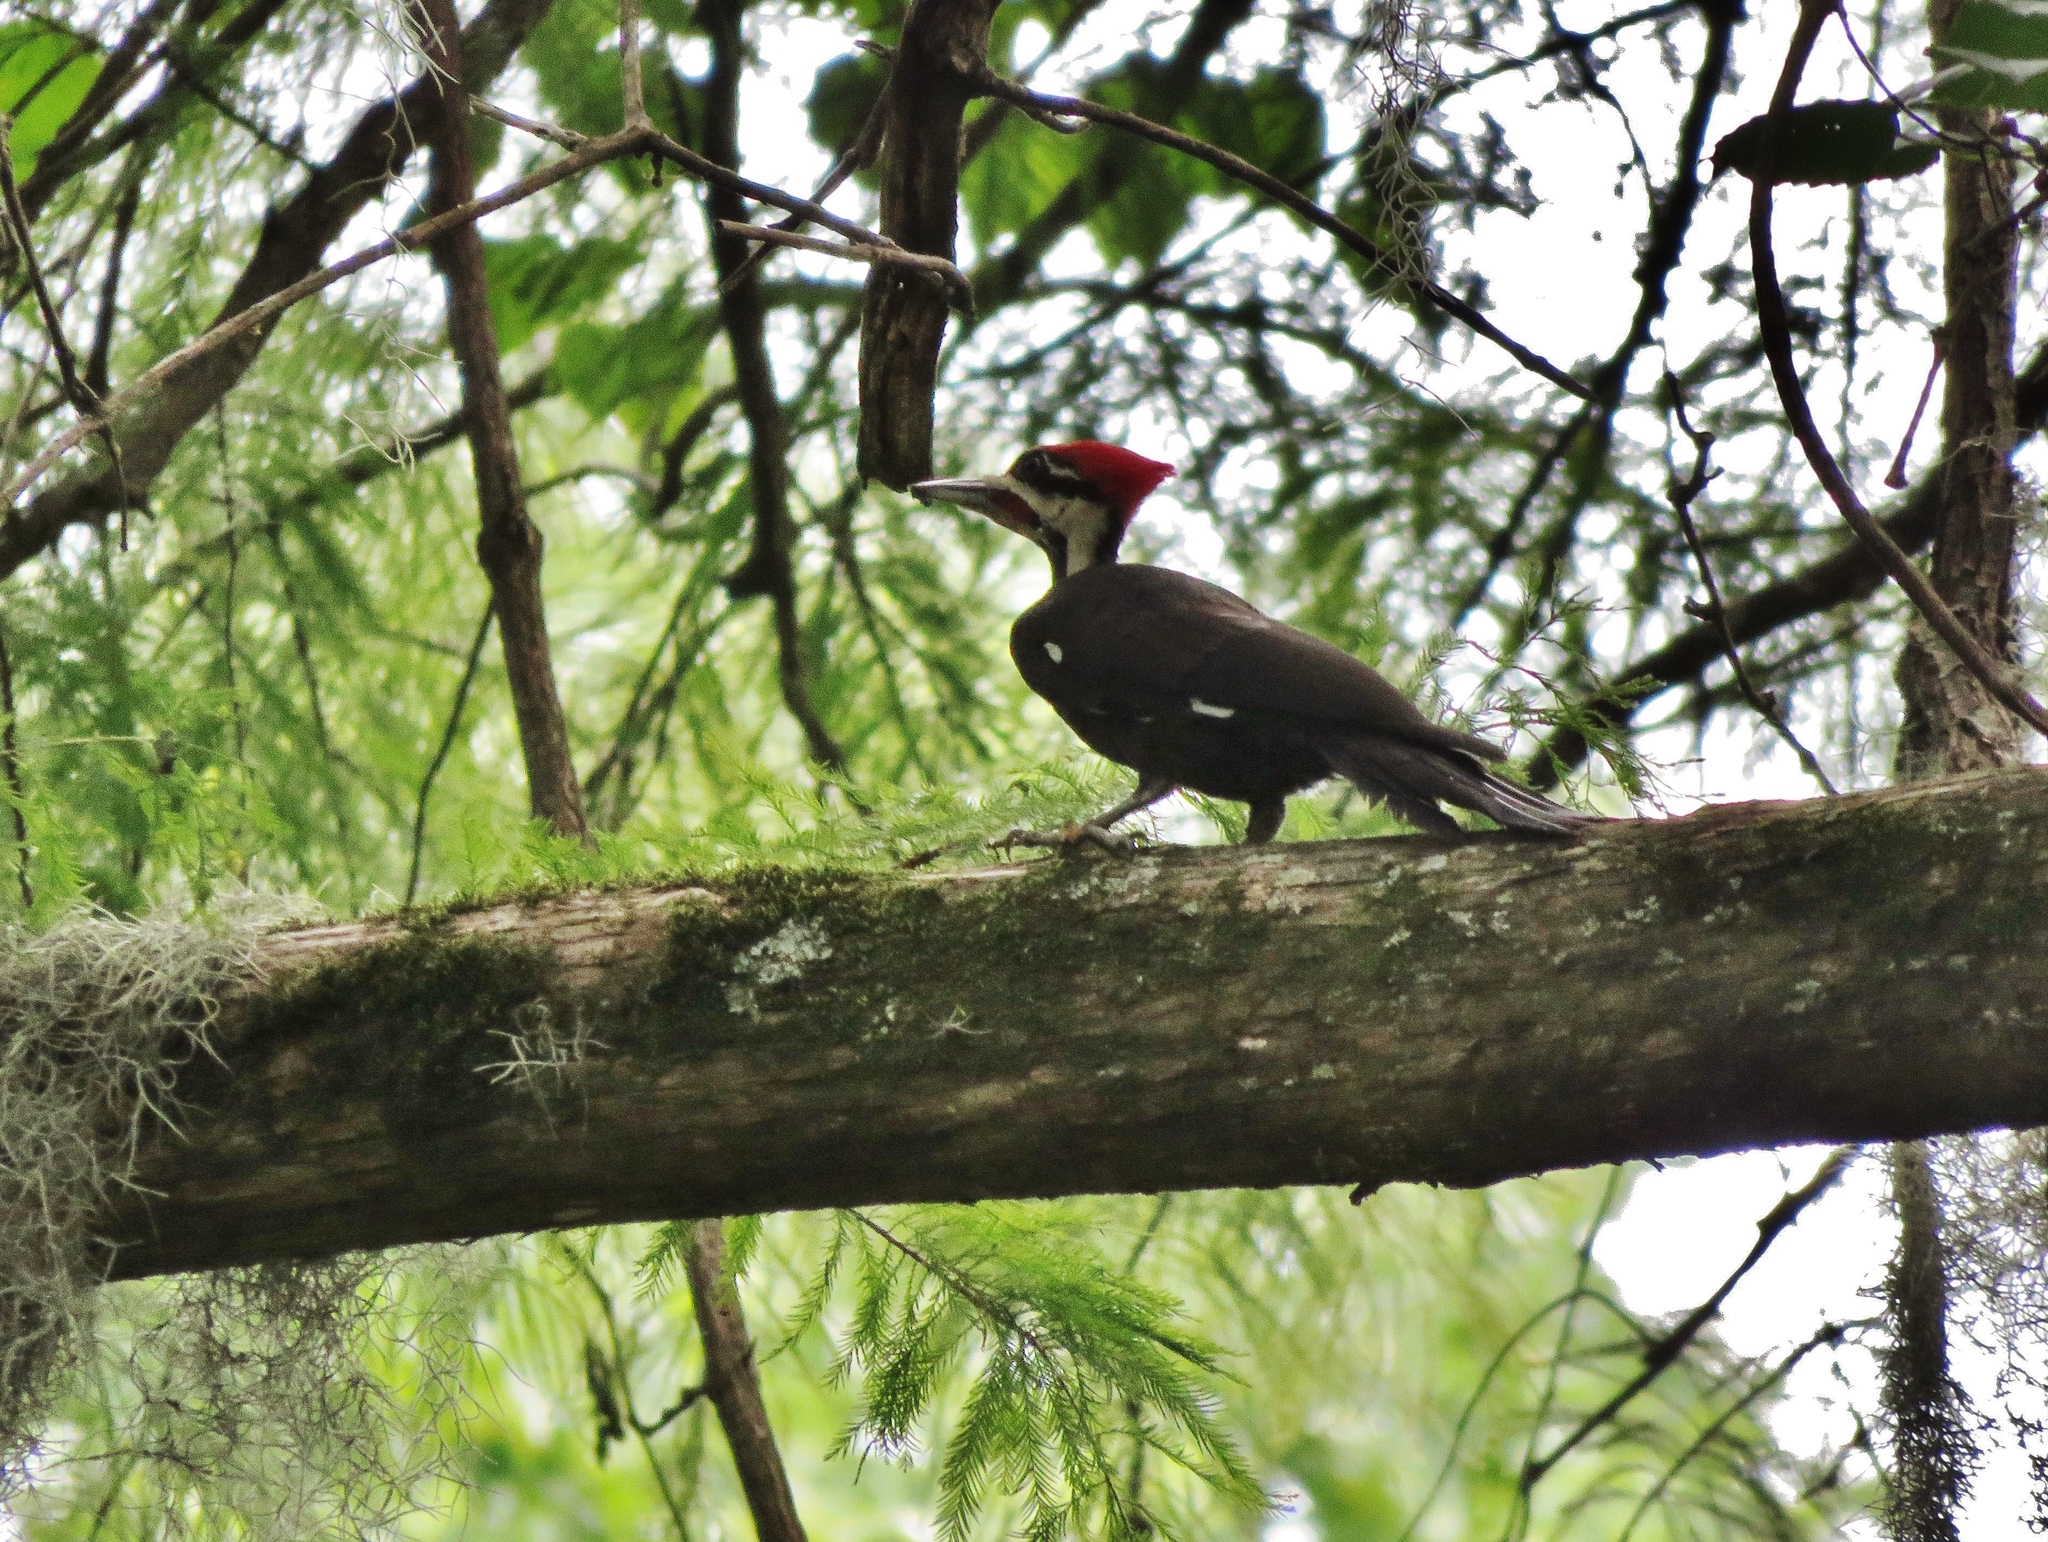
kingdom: Animalia
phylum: Chordata
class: Aves
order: Piciformes
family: Picidae
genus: Dryocopus
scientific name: Dryocopus pileatus
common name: Pileated woodpecker
